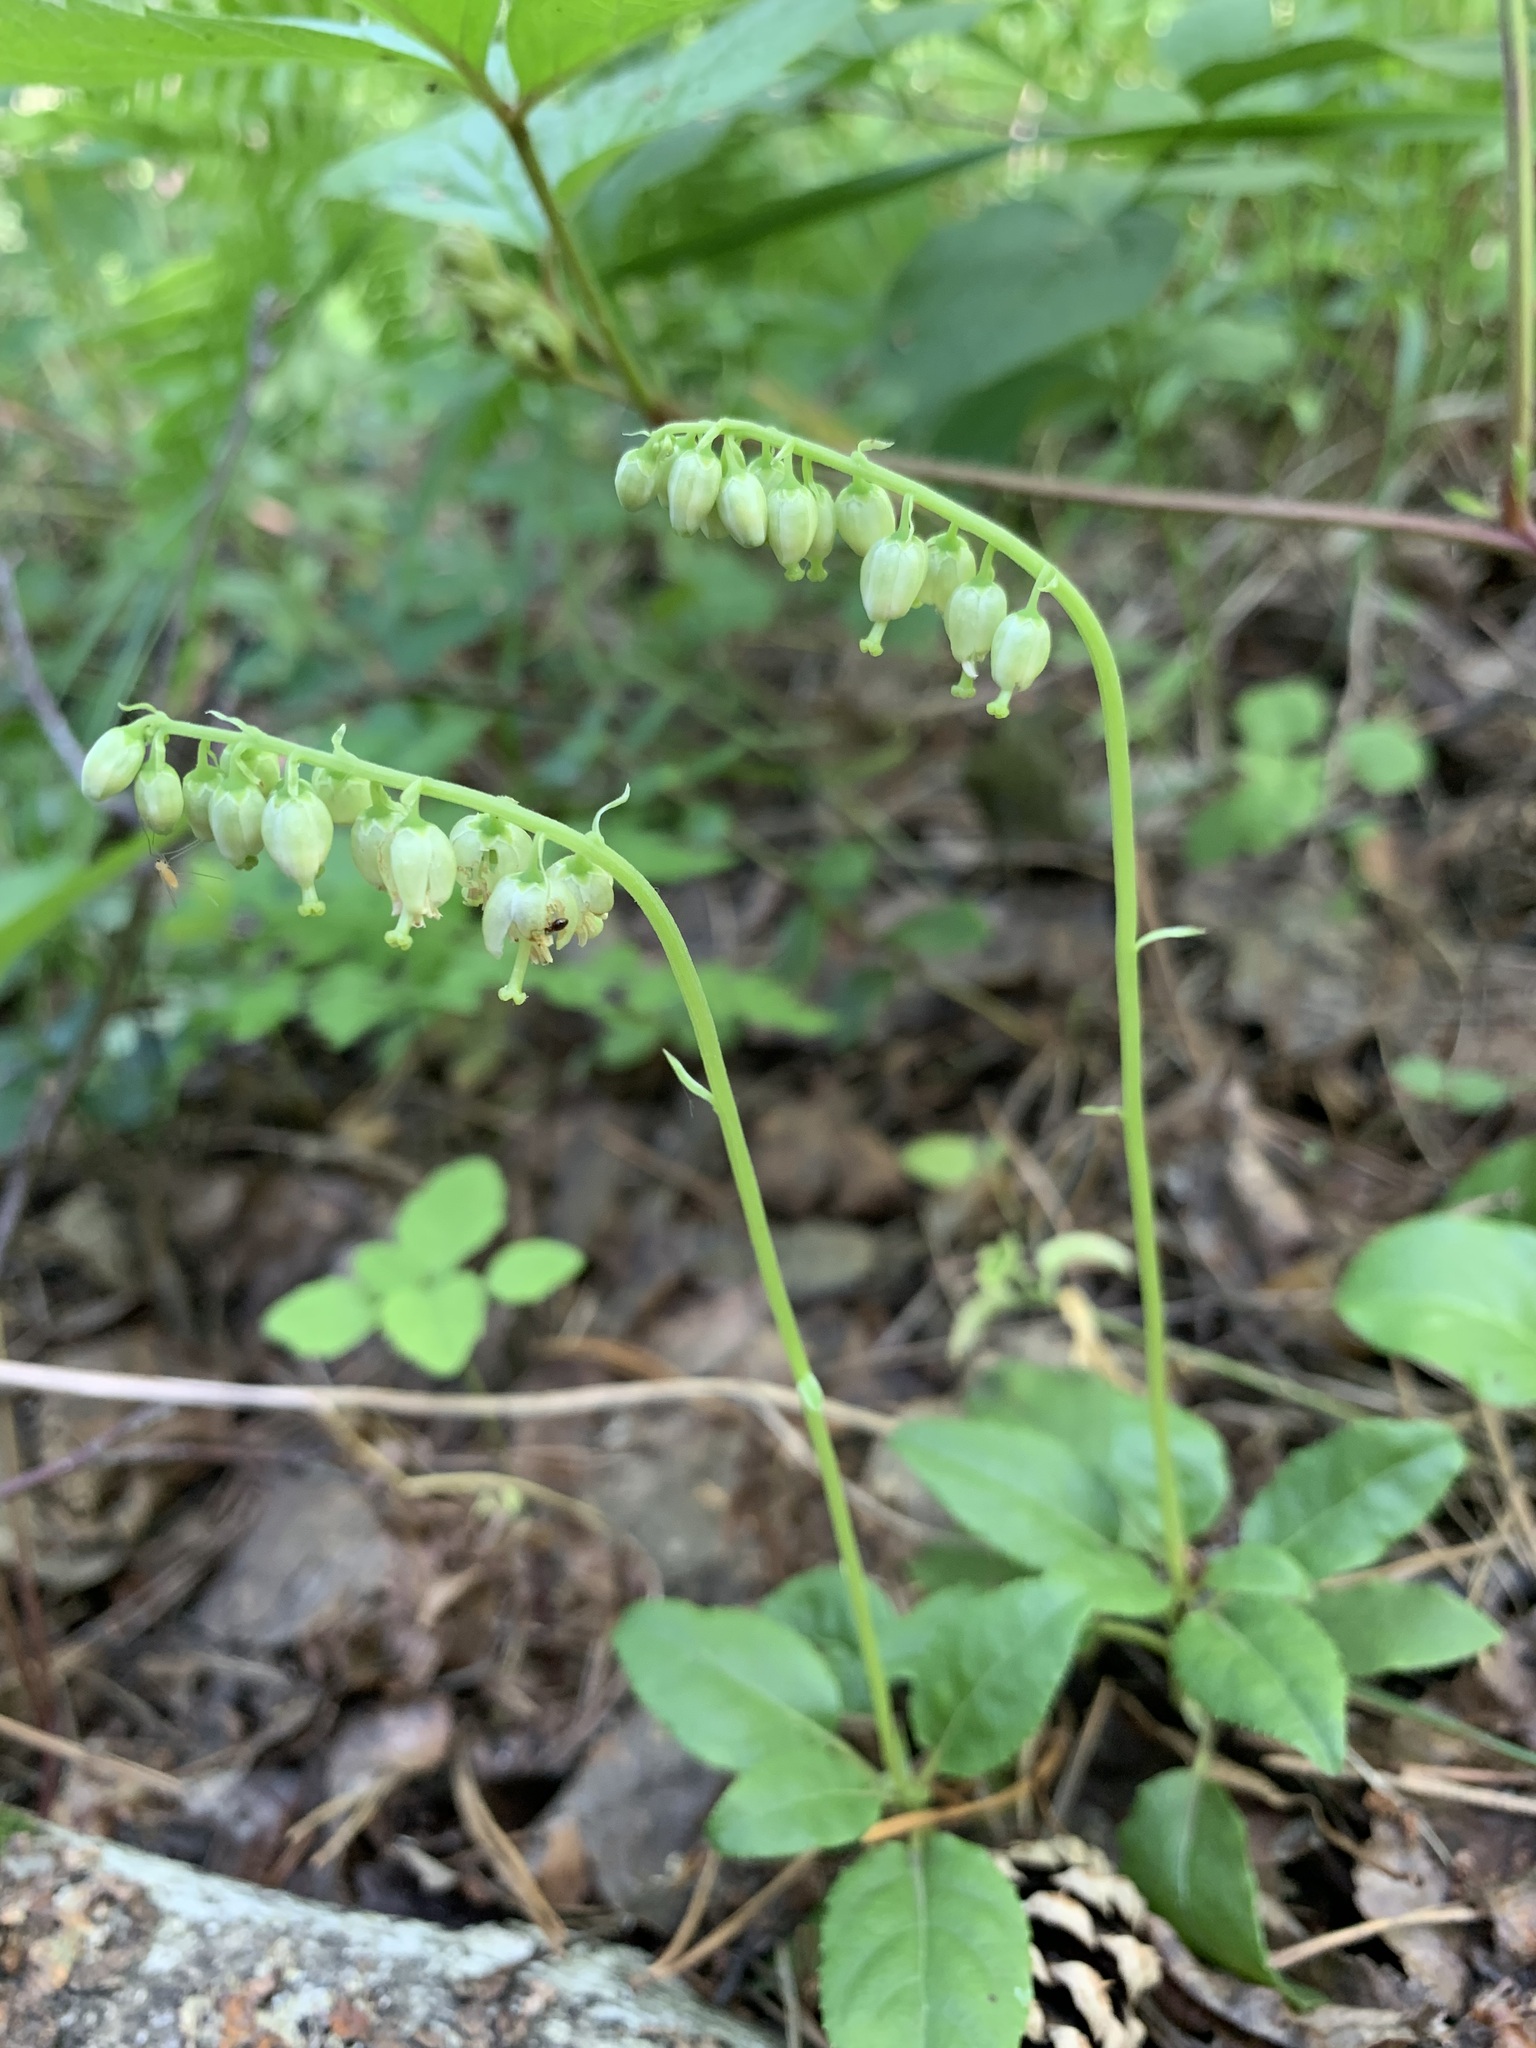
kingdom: Plantae
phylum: Tracheophyta
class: Magnoliopsida
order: Ericales
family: Ericaceae
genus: Orthilia
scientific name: Orthilia secunda
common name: One-sided orthilia
